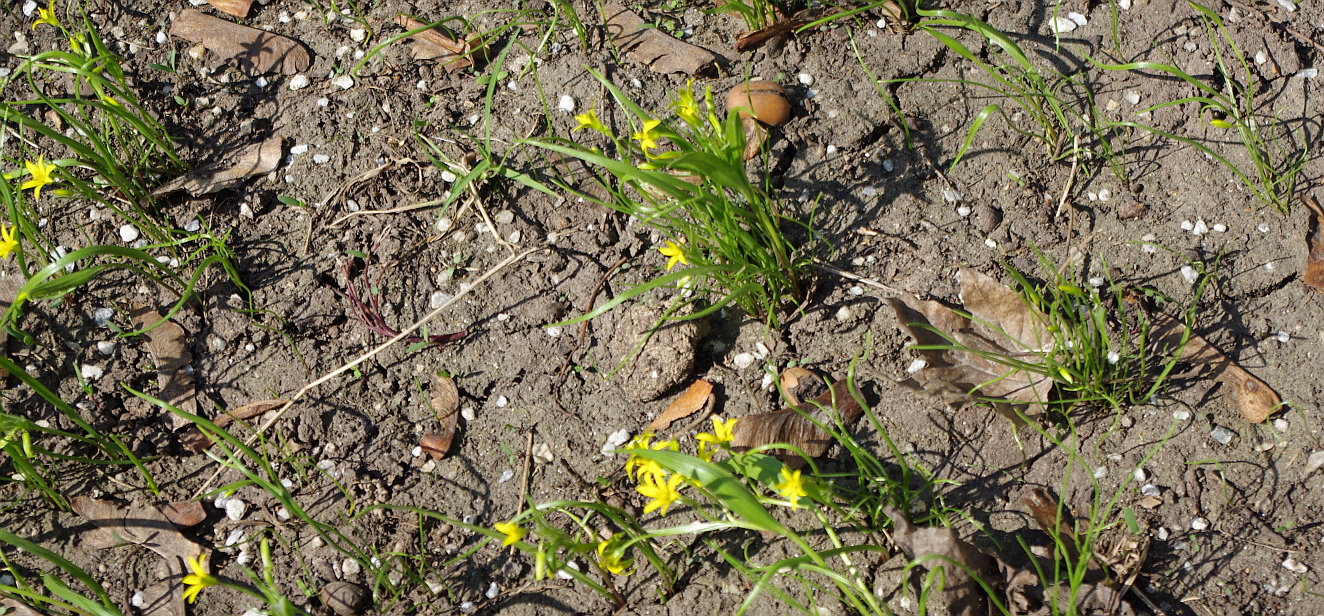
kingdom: Plantae
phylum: Tracheophyta
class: Liliopsida
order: Liliales
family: Liliaceae
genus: Gagea
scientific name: Gagea minima
